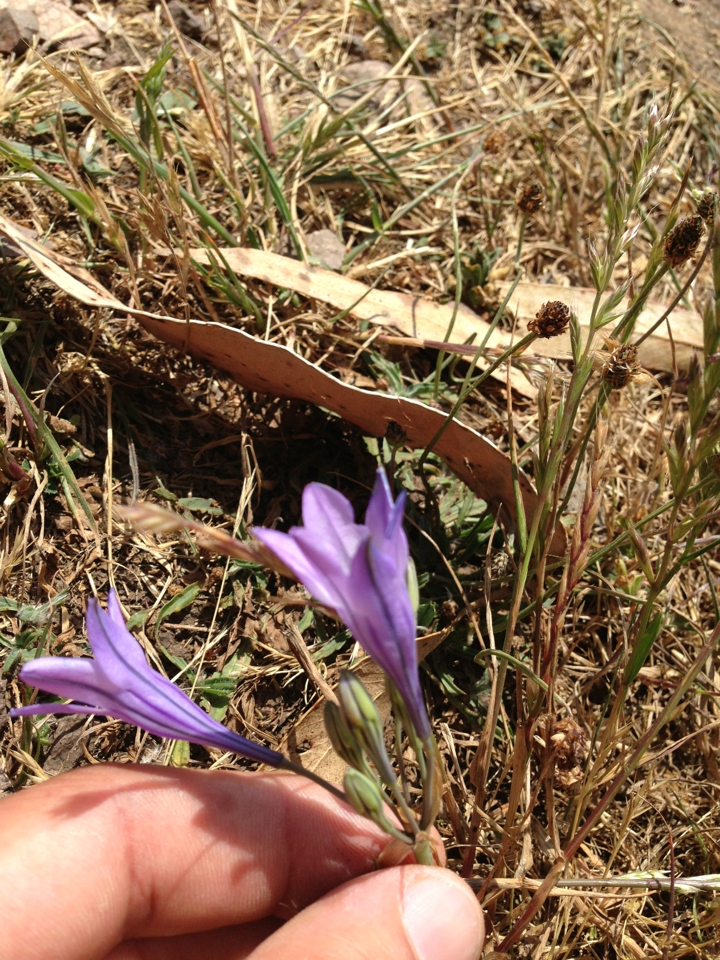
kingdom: Plantae
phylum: Tracheophyta
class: Liliopsida
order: Asparagales
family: Asparagaceae
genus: Triteleia
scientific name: Triteleia laxa
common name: Triplet-lily
